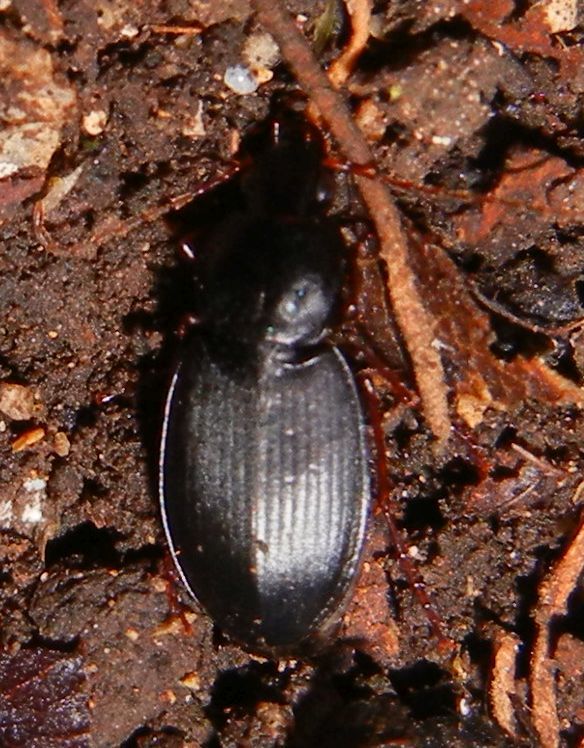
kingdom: Animalia
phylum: Arthropoda
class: Insecta
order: Coleoptera
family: Carabidae
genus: Calathus
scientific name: Calathus rotundicollis
